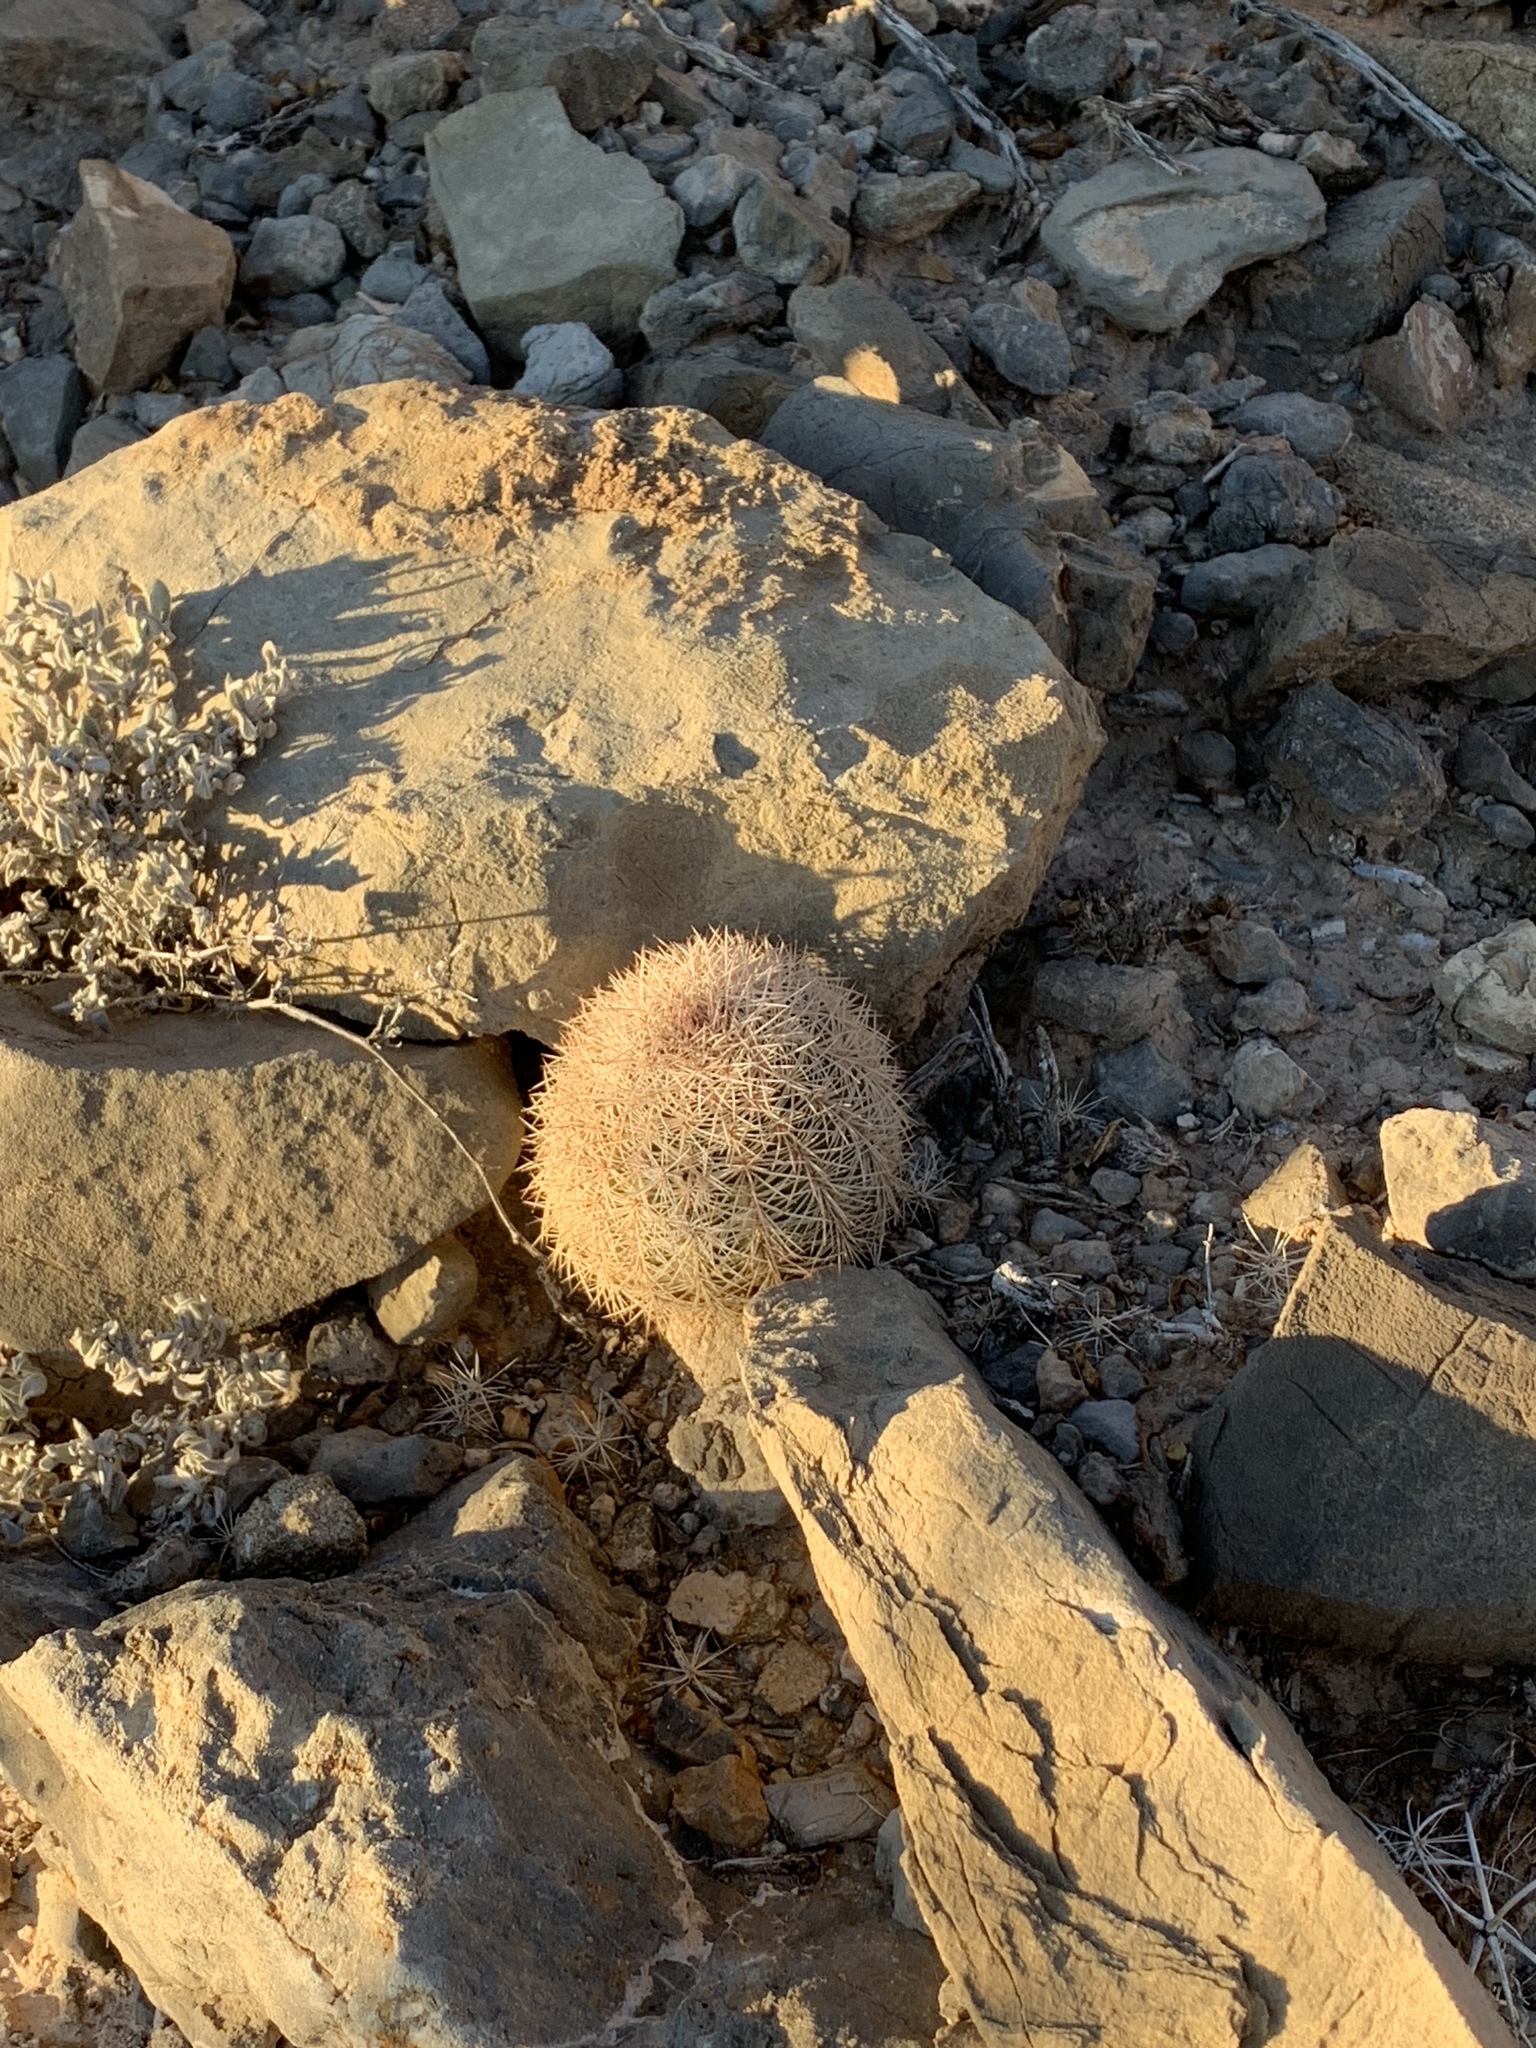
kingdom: Plantae
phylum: Tracheophyta
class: Magnoliopsida
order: Caryophyllales
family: Cactaceae
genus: Echinocereus
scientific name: Echinocereus dasyacanthus
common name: Spiny hedgehog cactus
